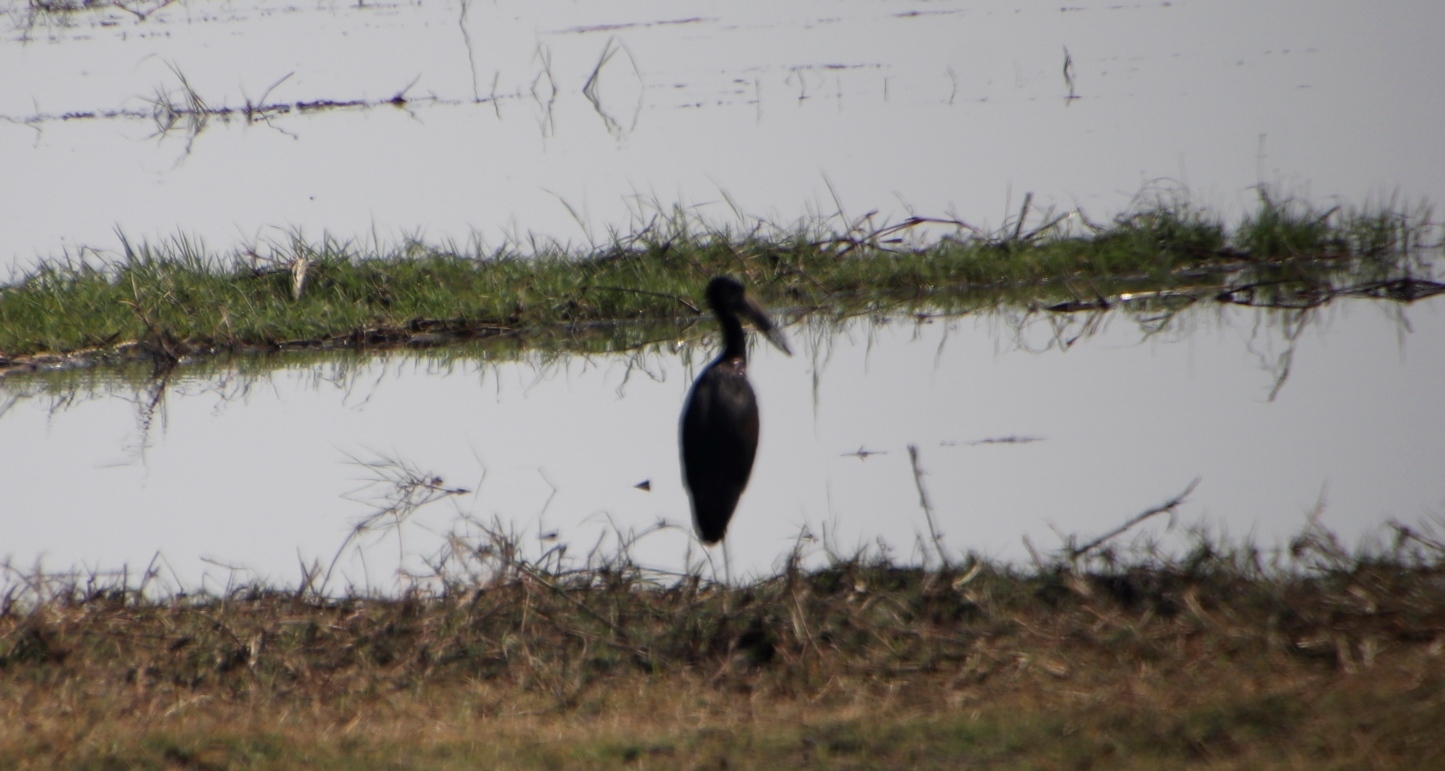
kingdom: Animalia
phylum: Chordata
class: Aves
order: Ciconiiformes
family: Ciconiidae
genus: Anastomus
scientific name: Anastomus lamelligerus
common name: African openbill
